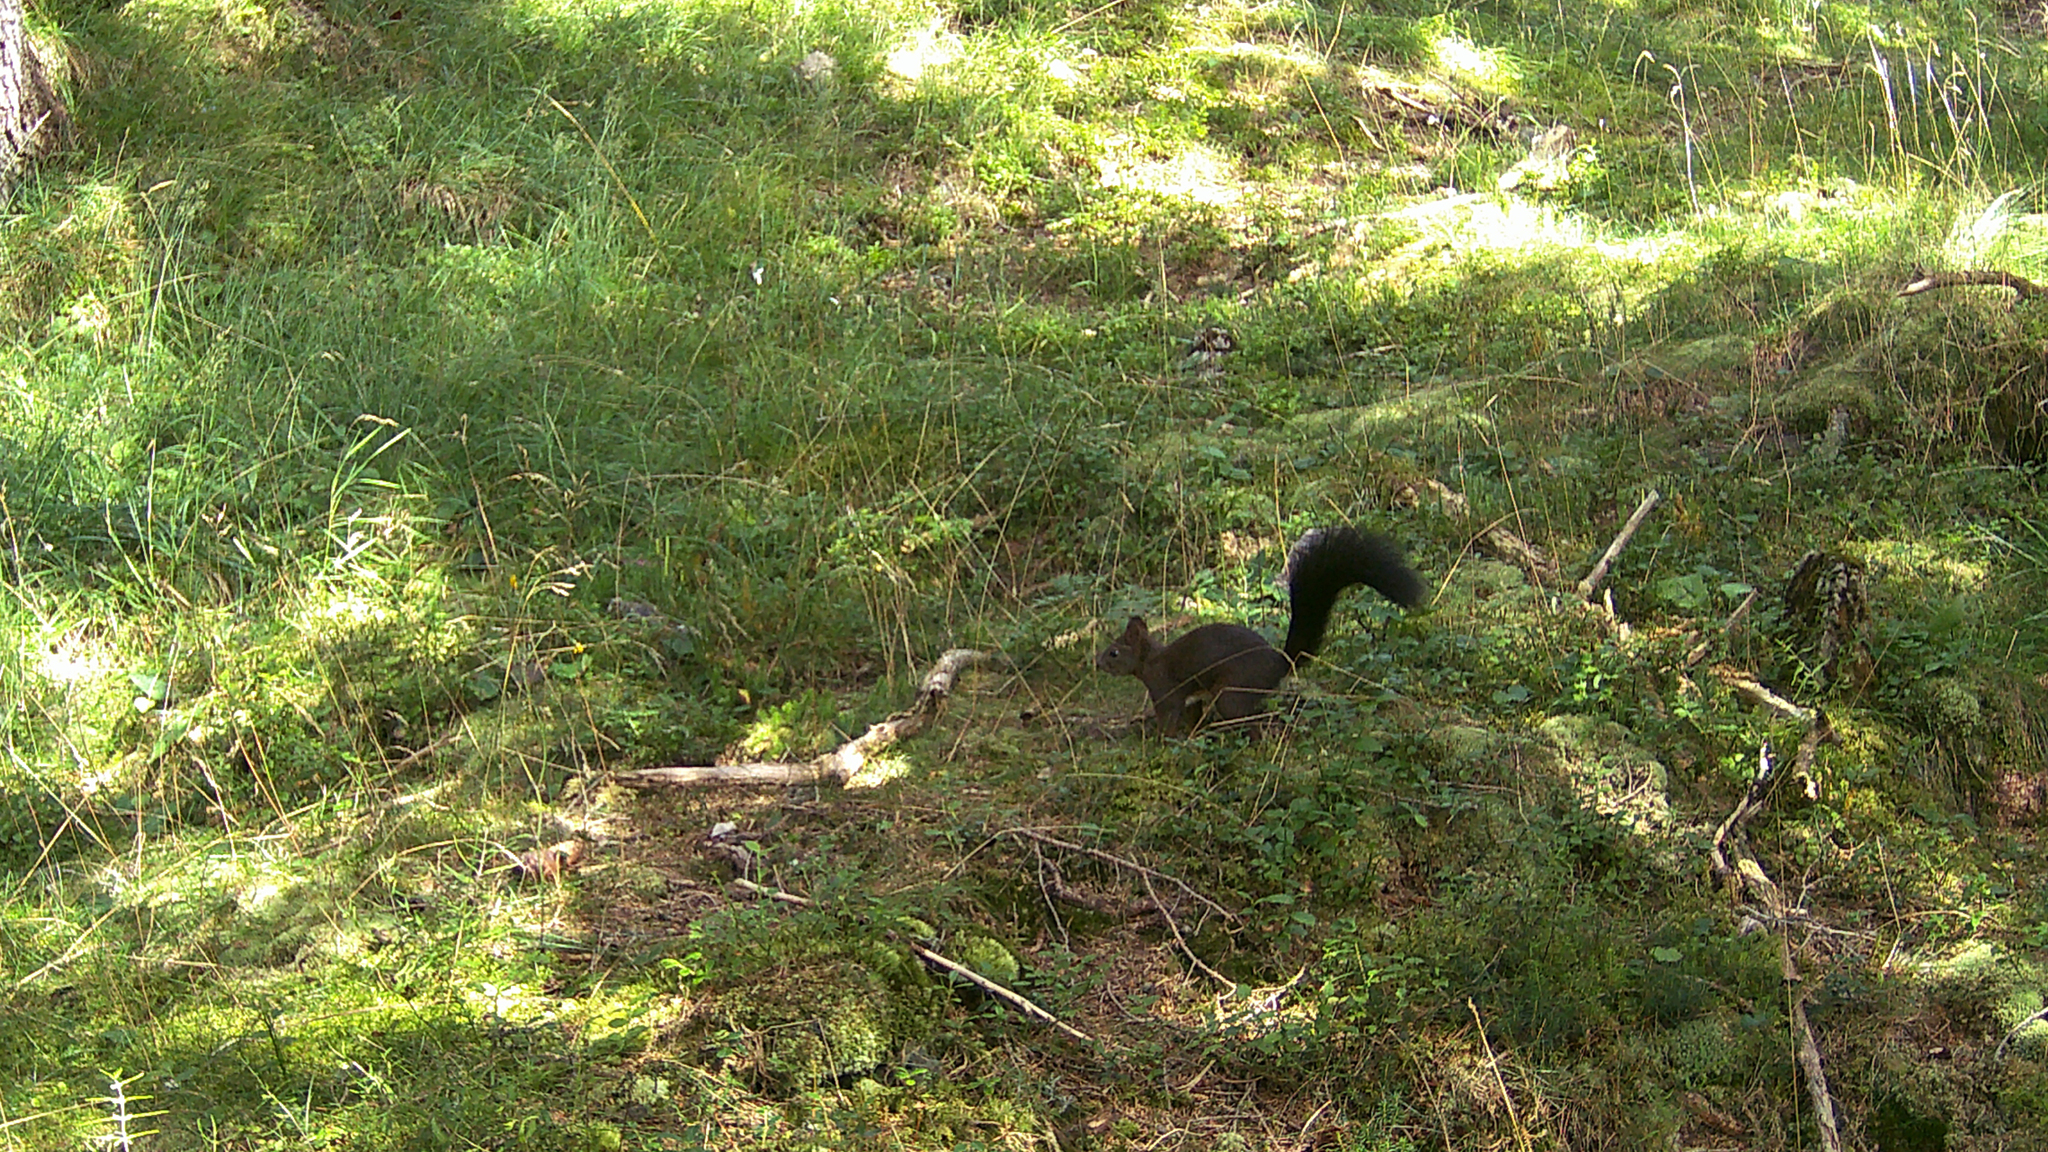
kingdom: Animalia
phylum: Chordata
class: Mammalia
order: Rodentia
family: Sciuridae
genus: Sciurus
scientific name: Sciurus vulgaris
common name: Eurasian red squirrel
